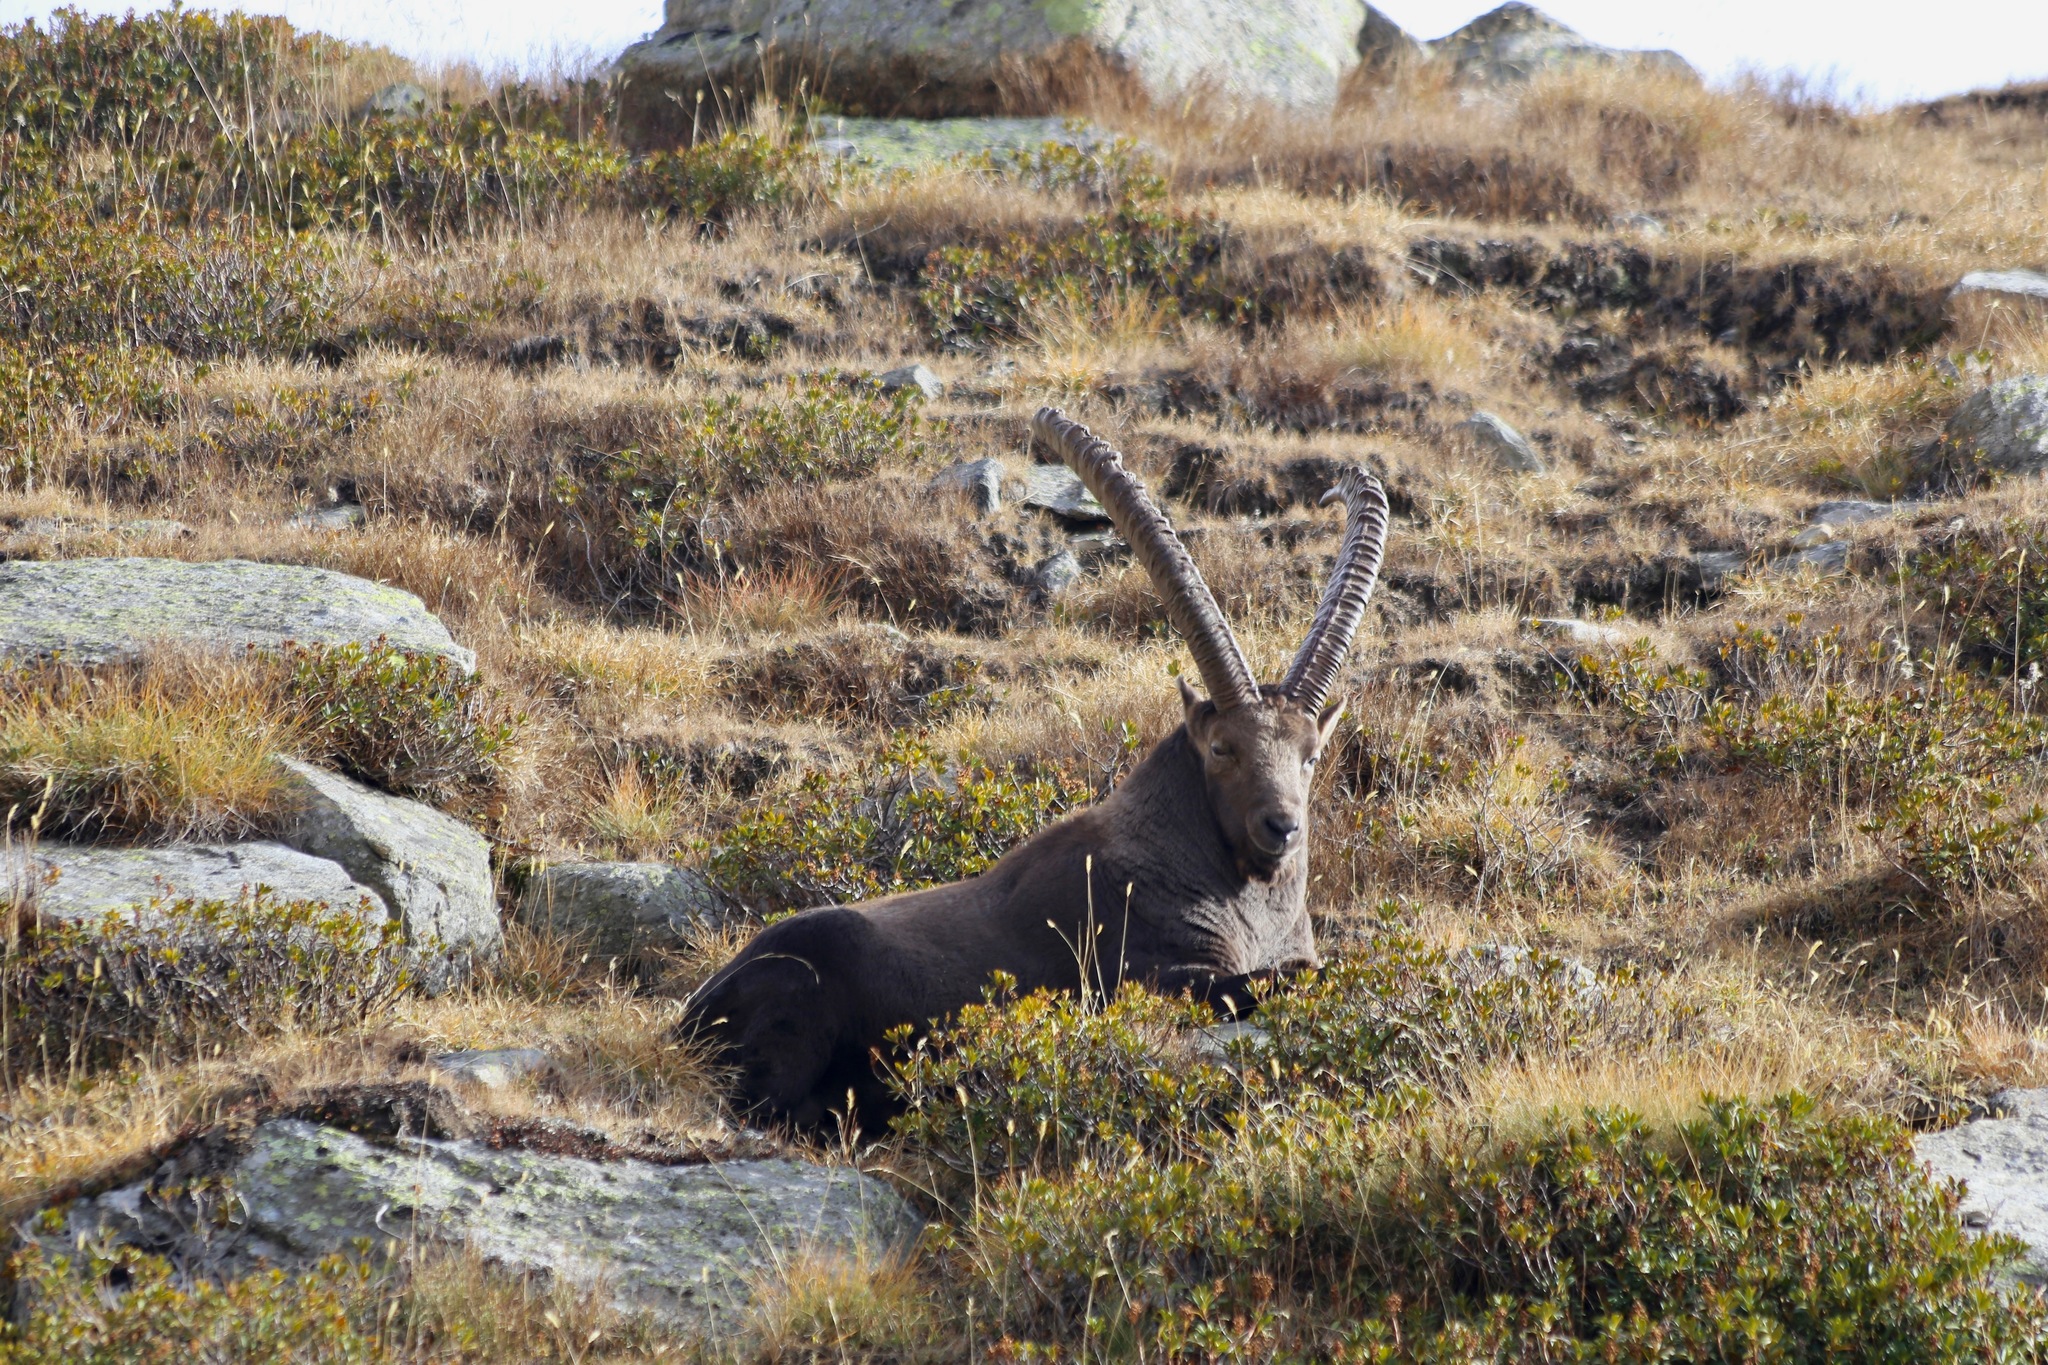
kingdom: Animalia
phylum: Chordata
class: Mammalia
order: Artiodactyla
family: Bovidae
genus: Capra
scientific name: Capra ibex
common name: Alpine ibex
